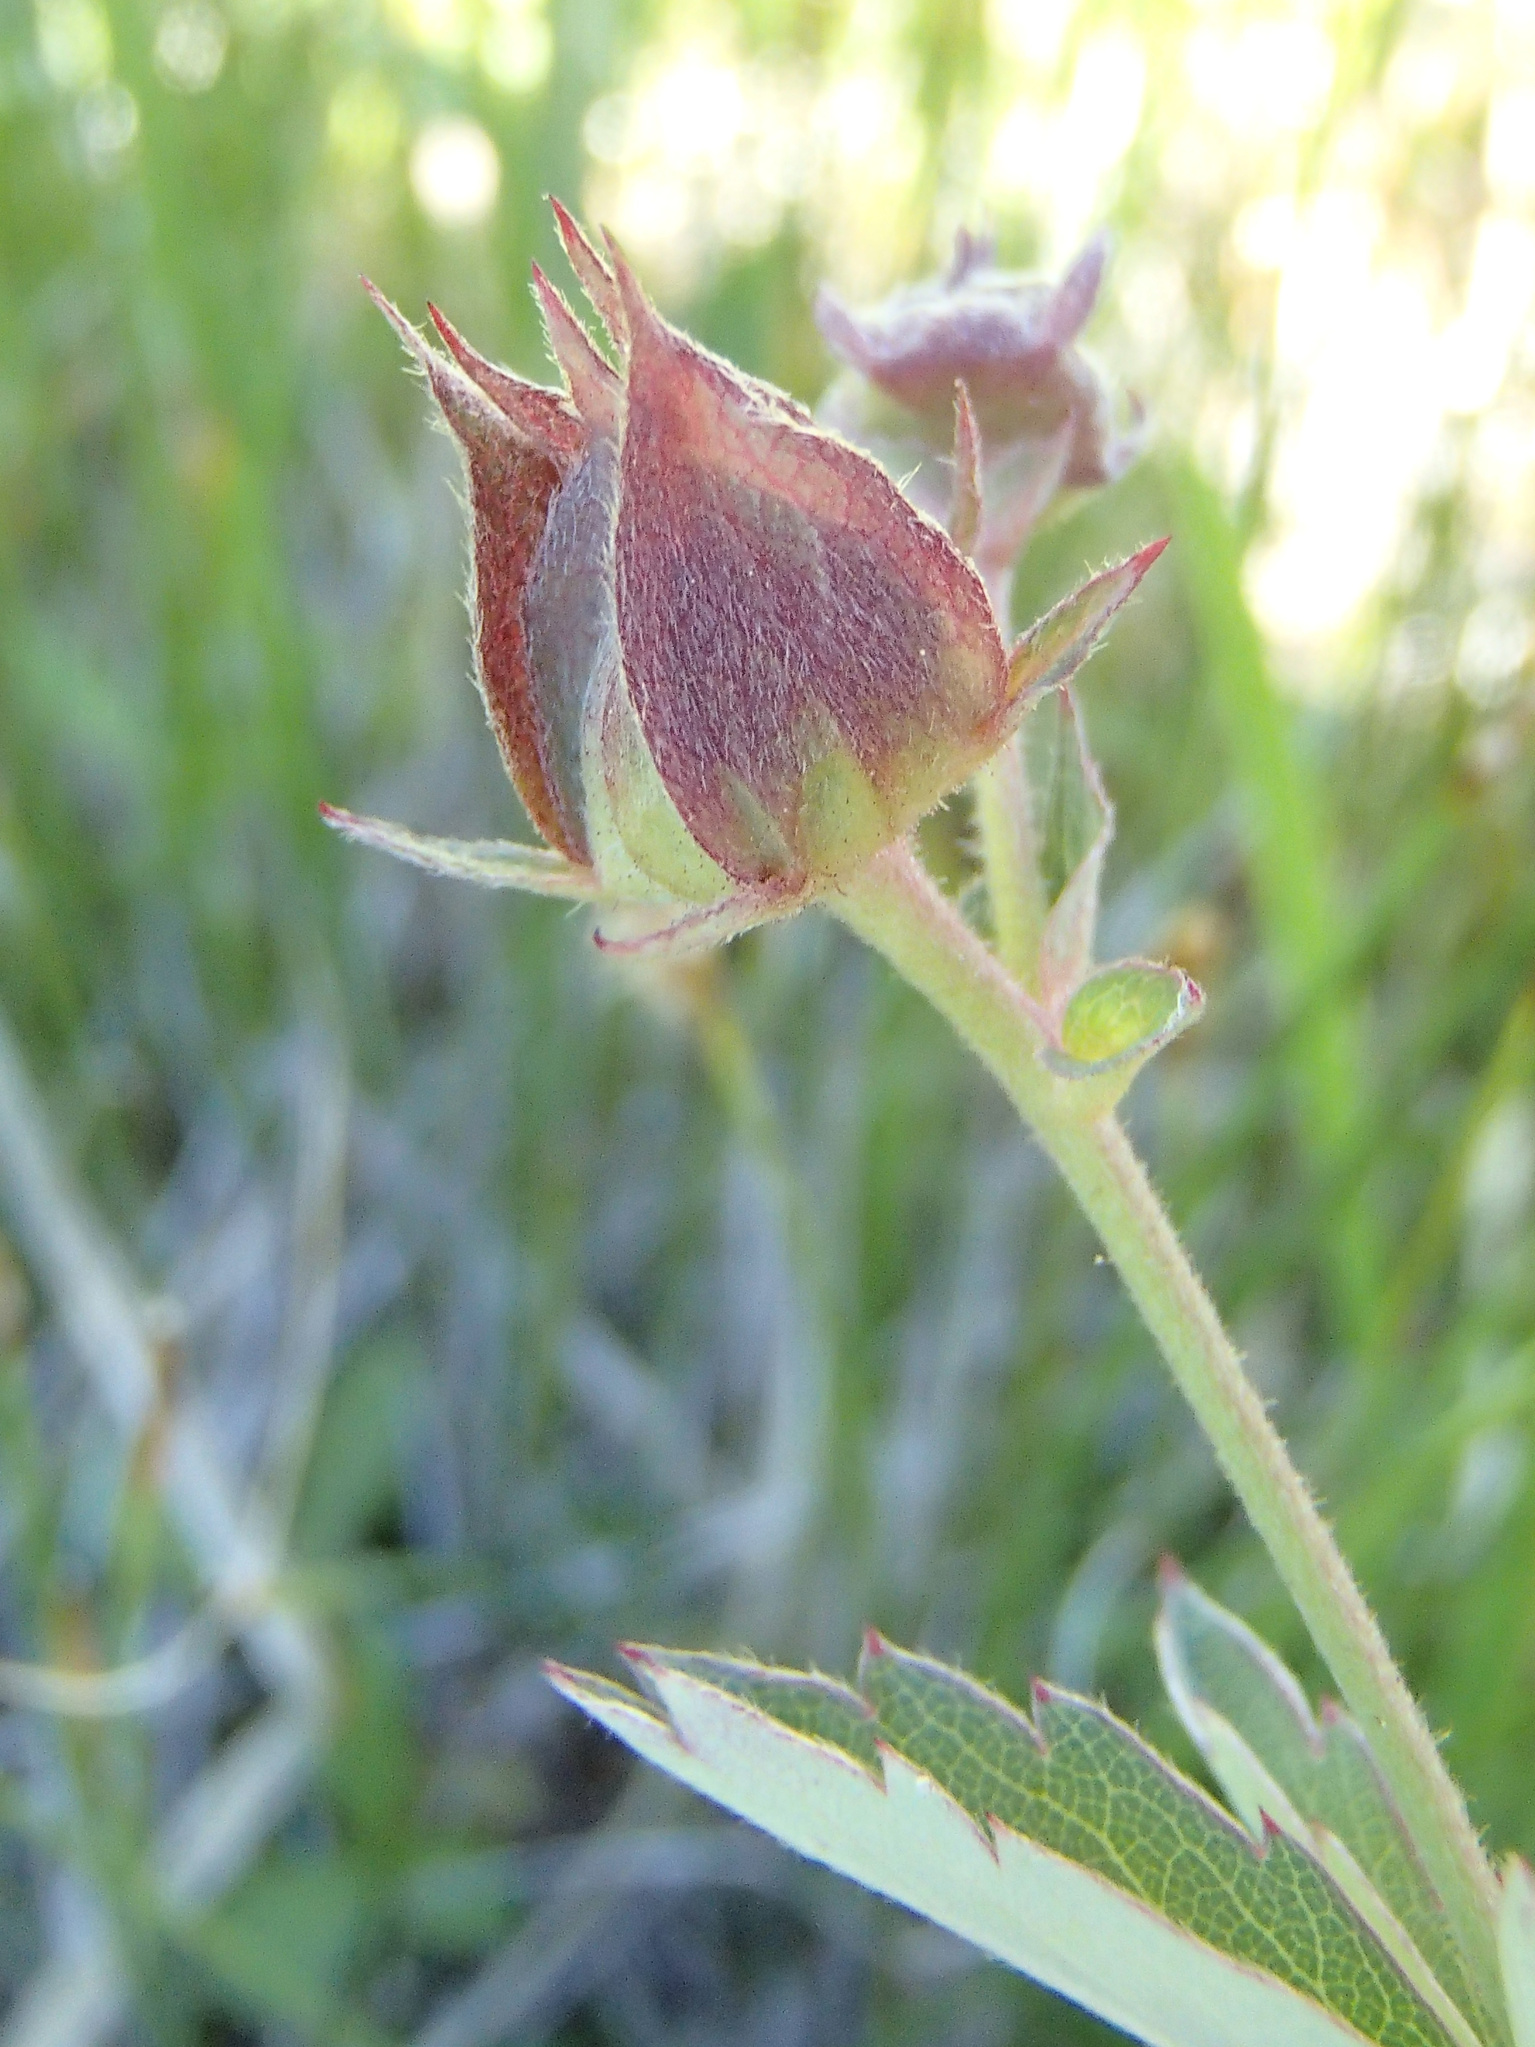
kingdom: Plantae
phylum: Tracheophyta
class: Magnoliopsida
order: Rosales
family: Rosaceae
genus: Comarum
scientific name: Comarum palustre
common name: Marsh cinquefoil
